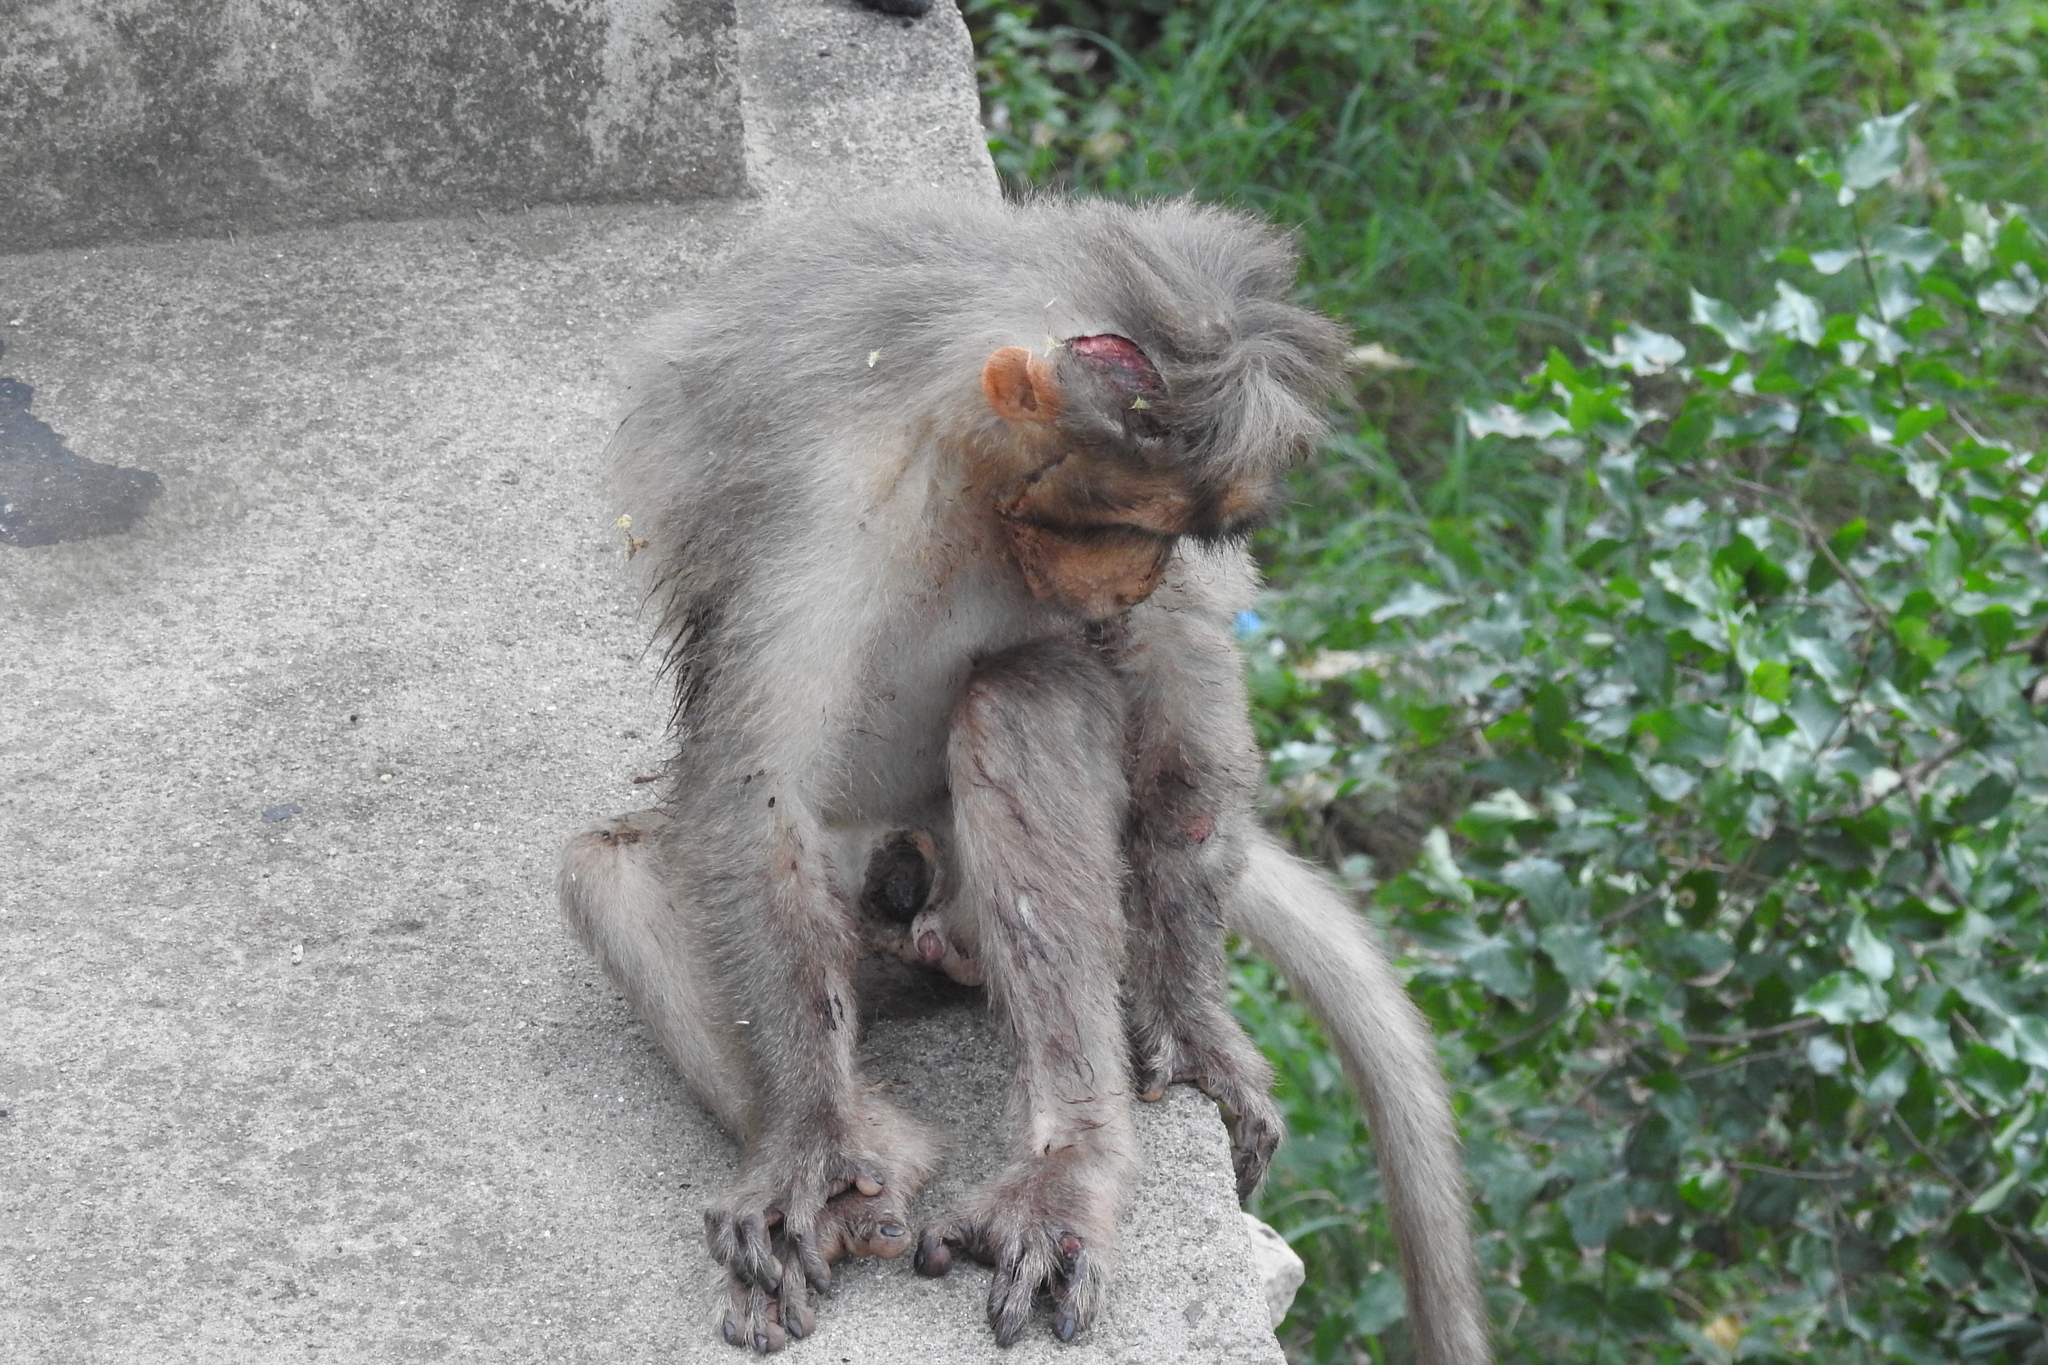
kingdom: Animalia
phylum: Chordata
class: Mammalia
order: Primates
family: Cercopithecidae
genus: Macaca
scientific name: Macaca radiata
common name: Bonnet macaque
